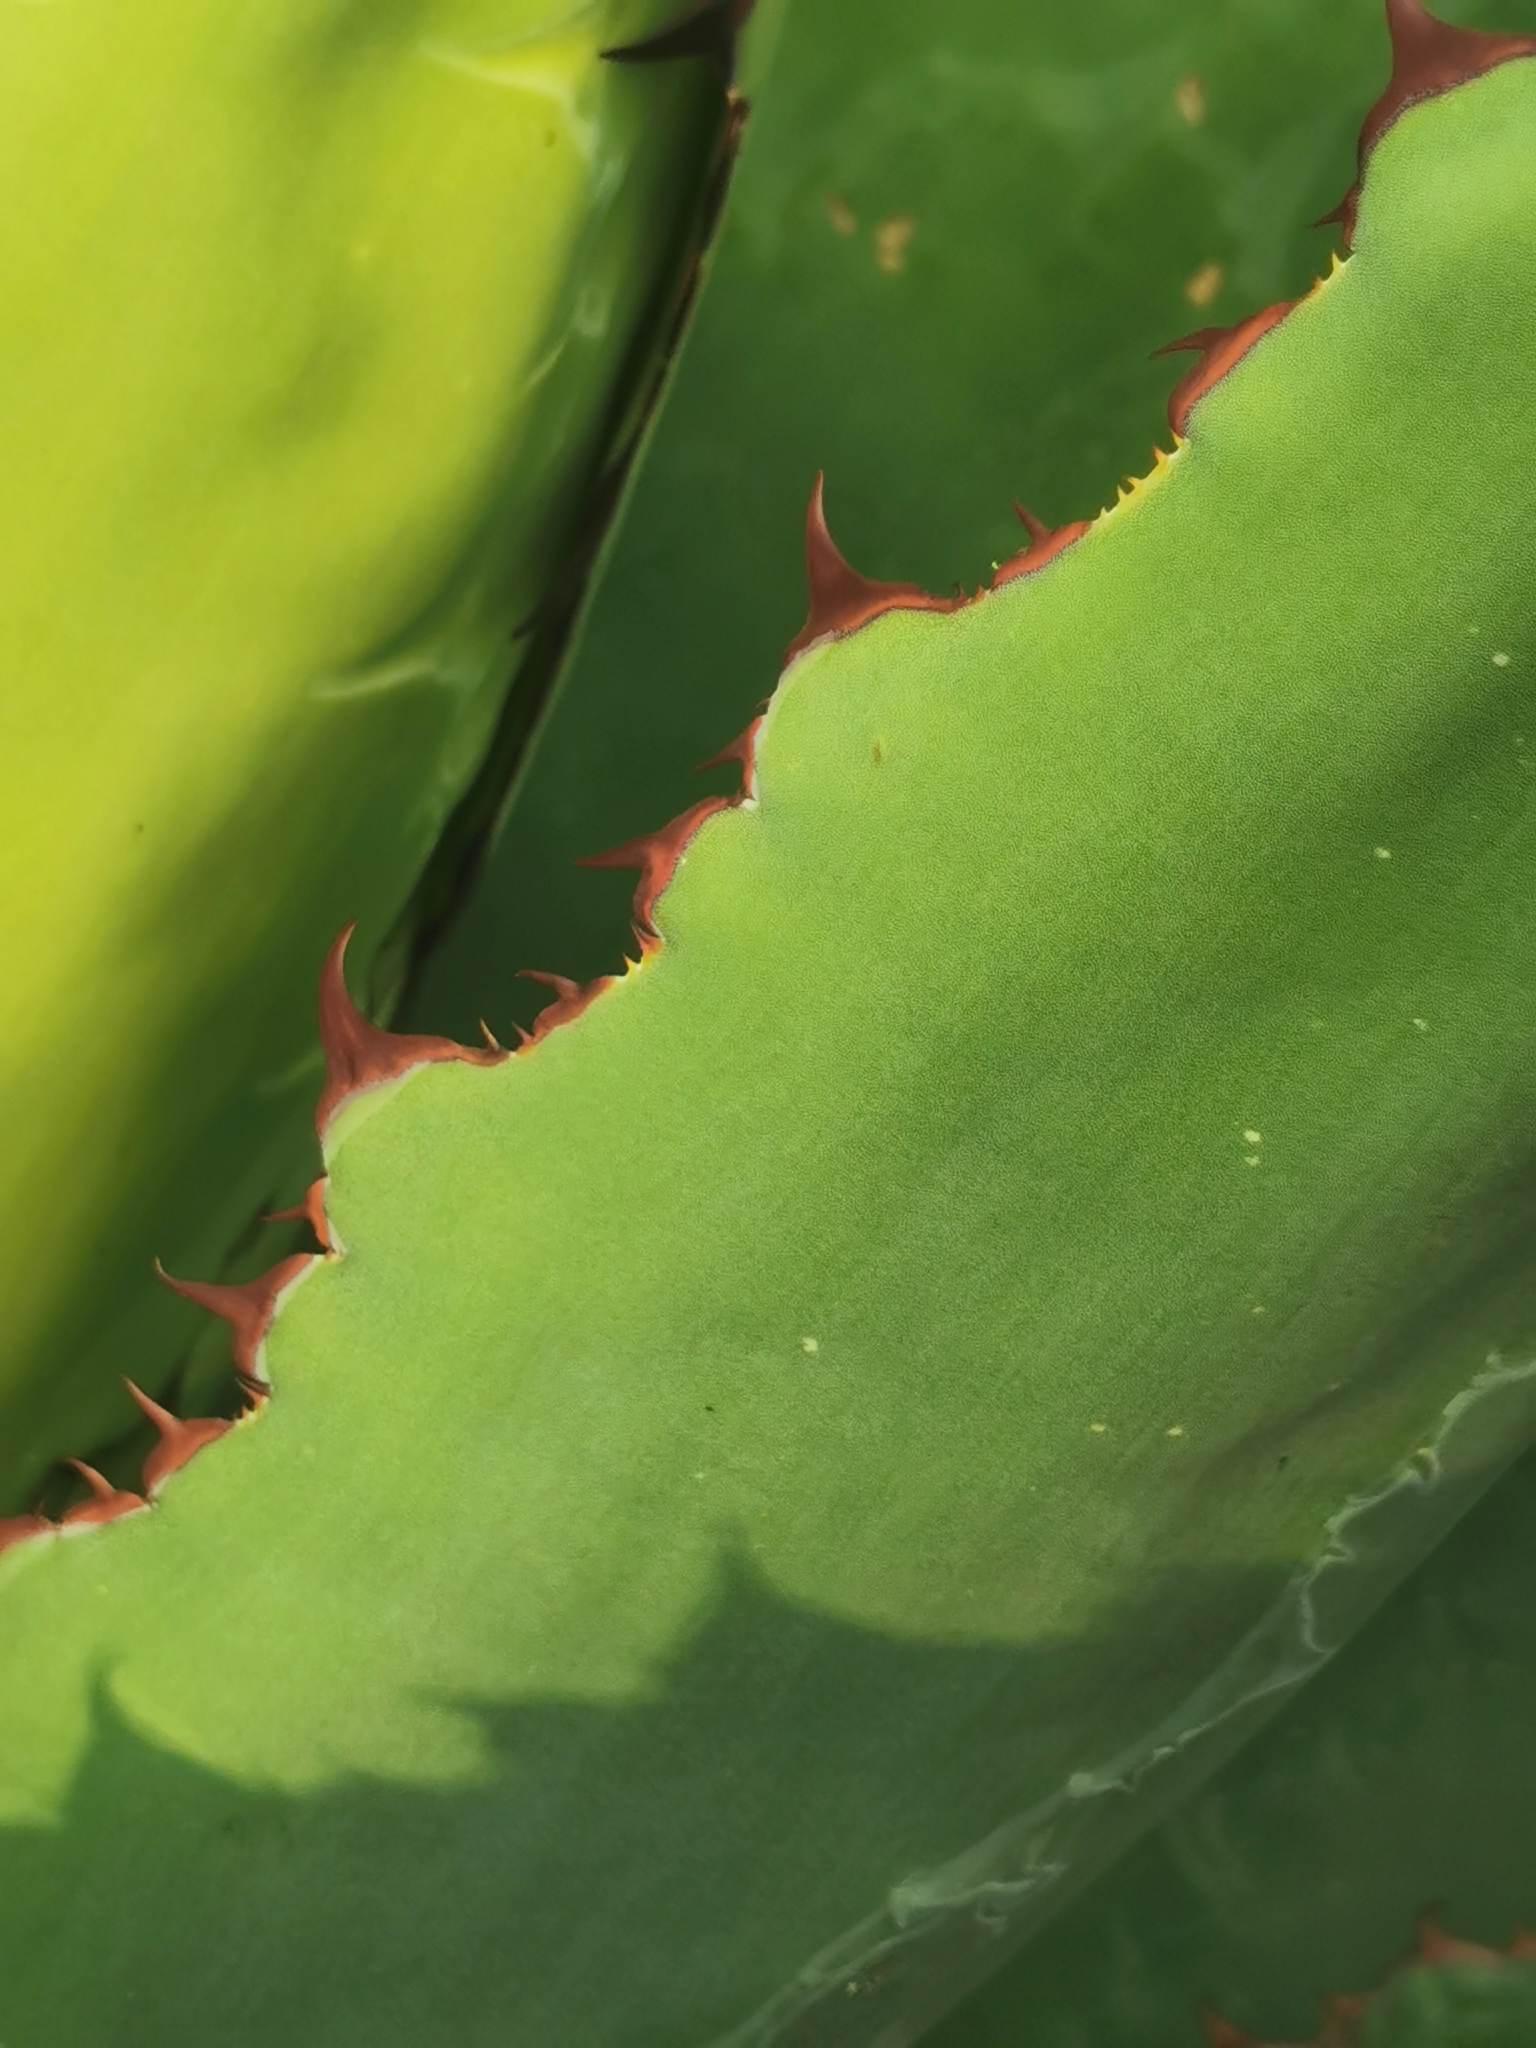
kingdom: Plantae
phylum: Tracheophyta
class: Liliopsida
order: Asparagales
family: Asparagaceae
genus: Agave
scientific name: Agave bovicornuta
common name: Cow's horn agave
